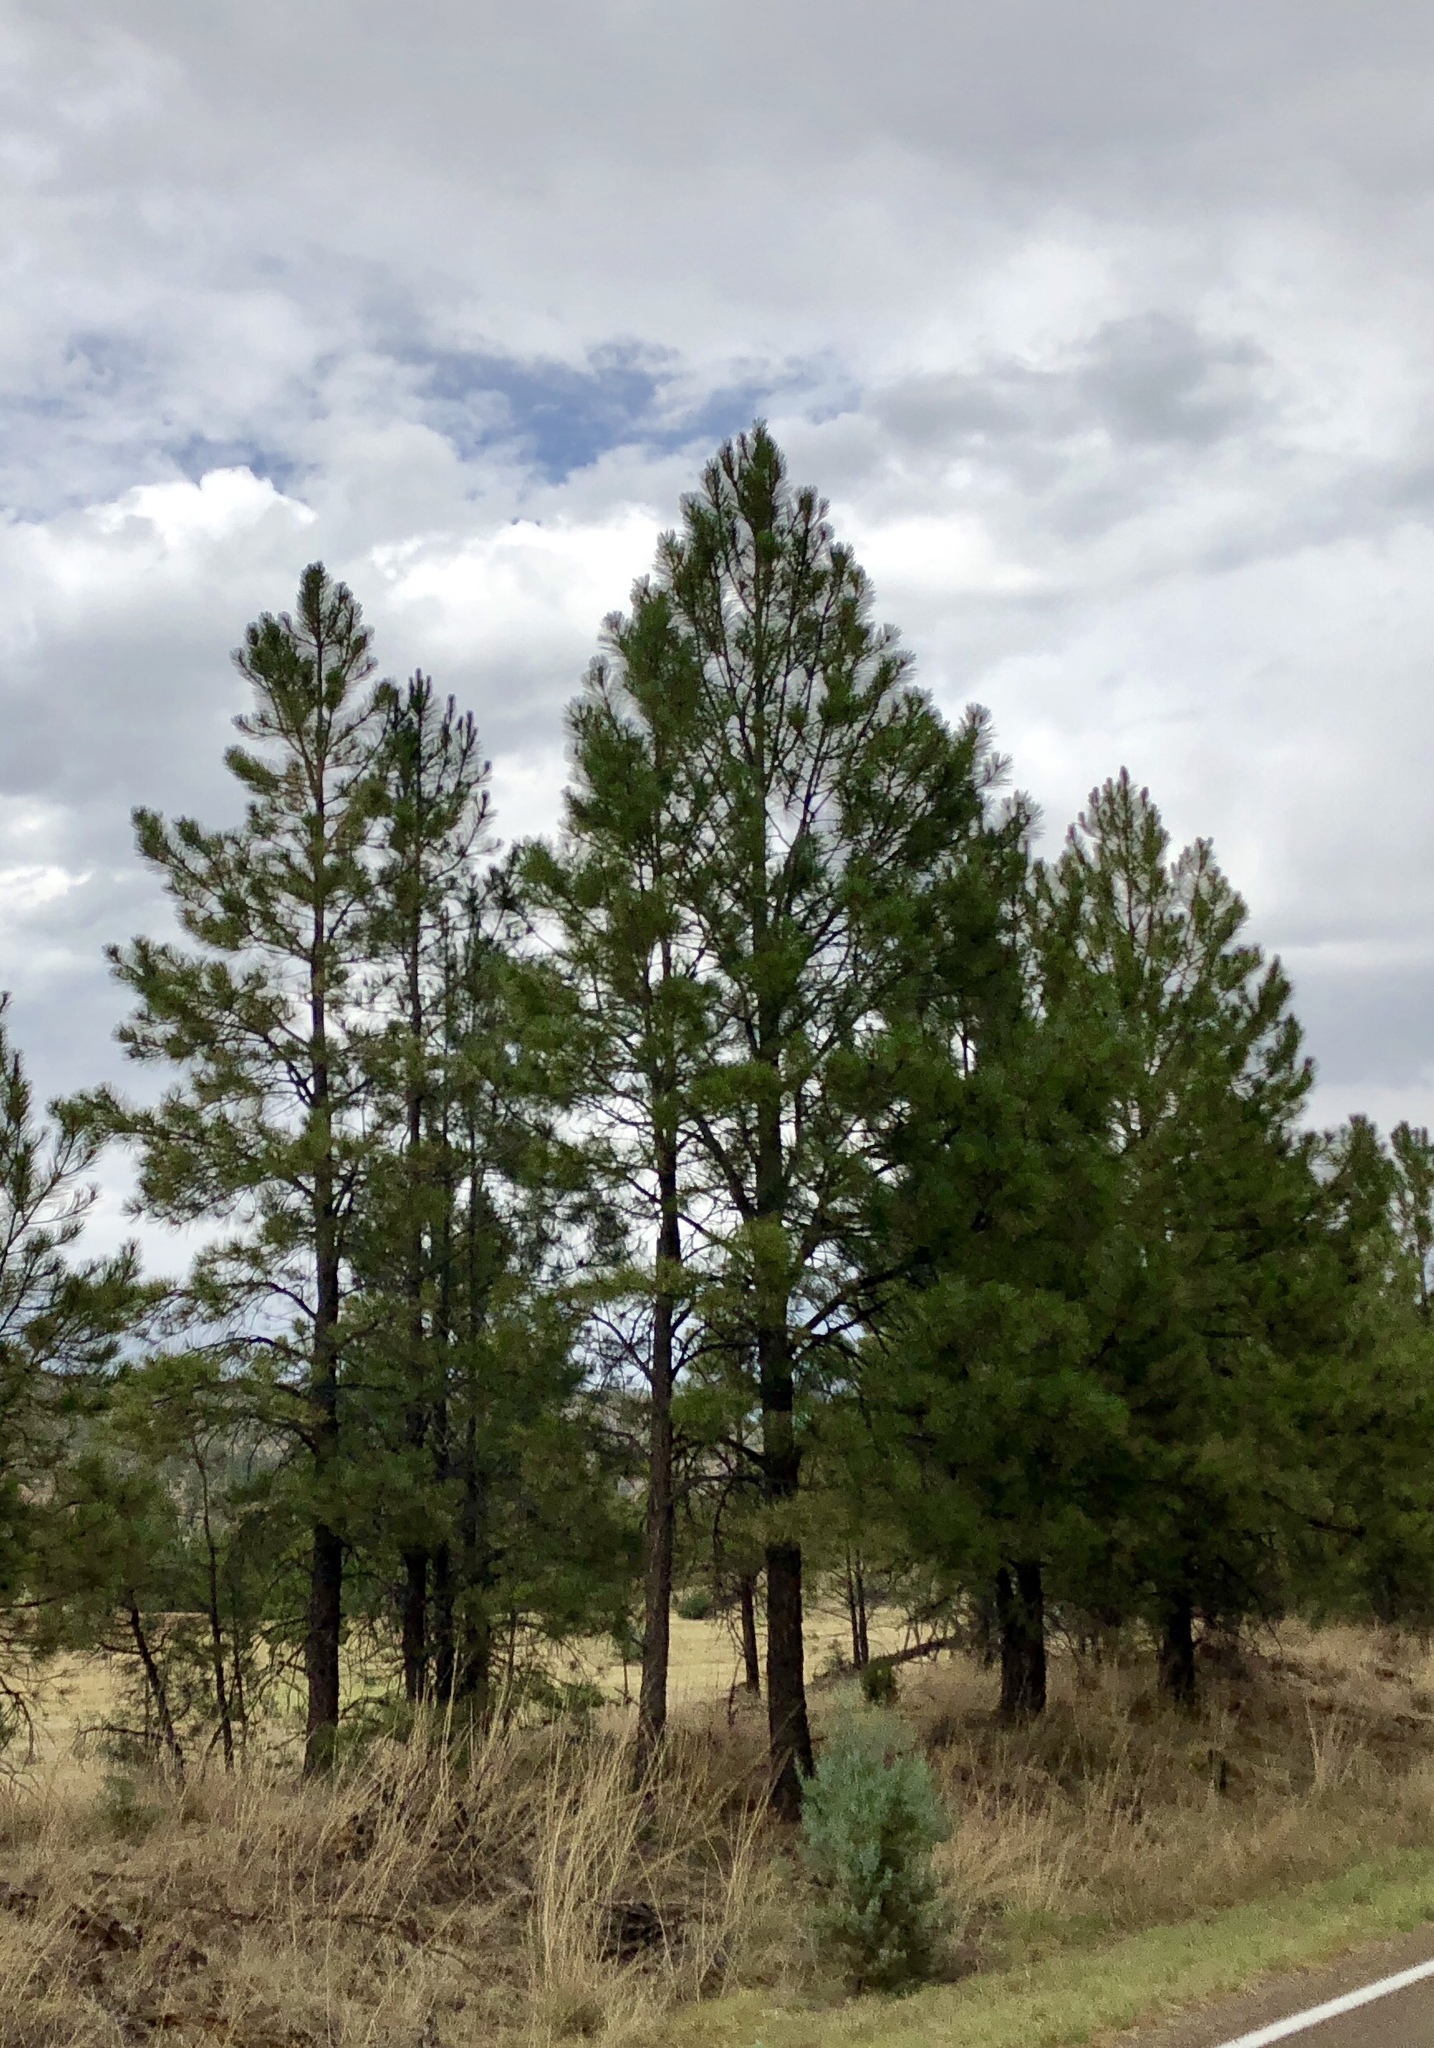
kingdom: Plantae
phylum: Tracheophyta
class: Pinopsida
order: Pinales
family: Pinaceae
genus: Pinus
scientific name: Pinus ponderosa
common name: Western yellow-pine
